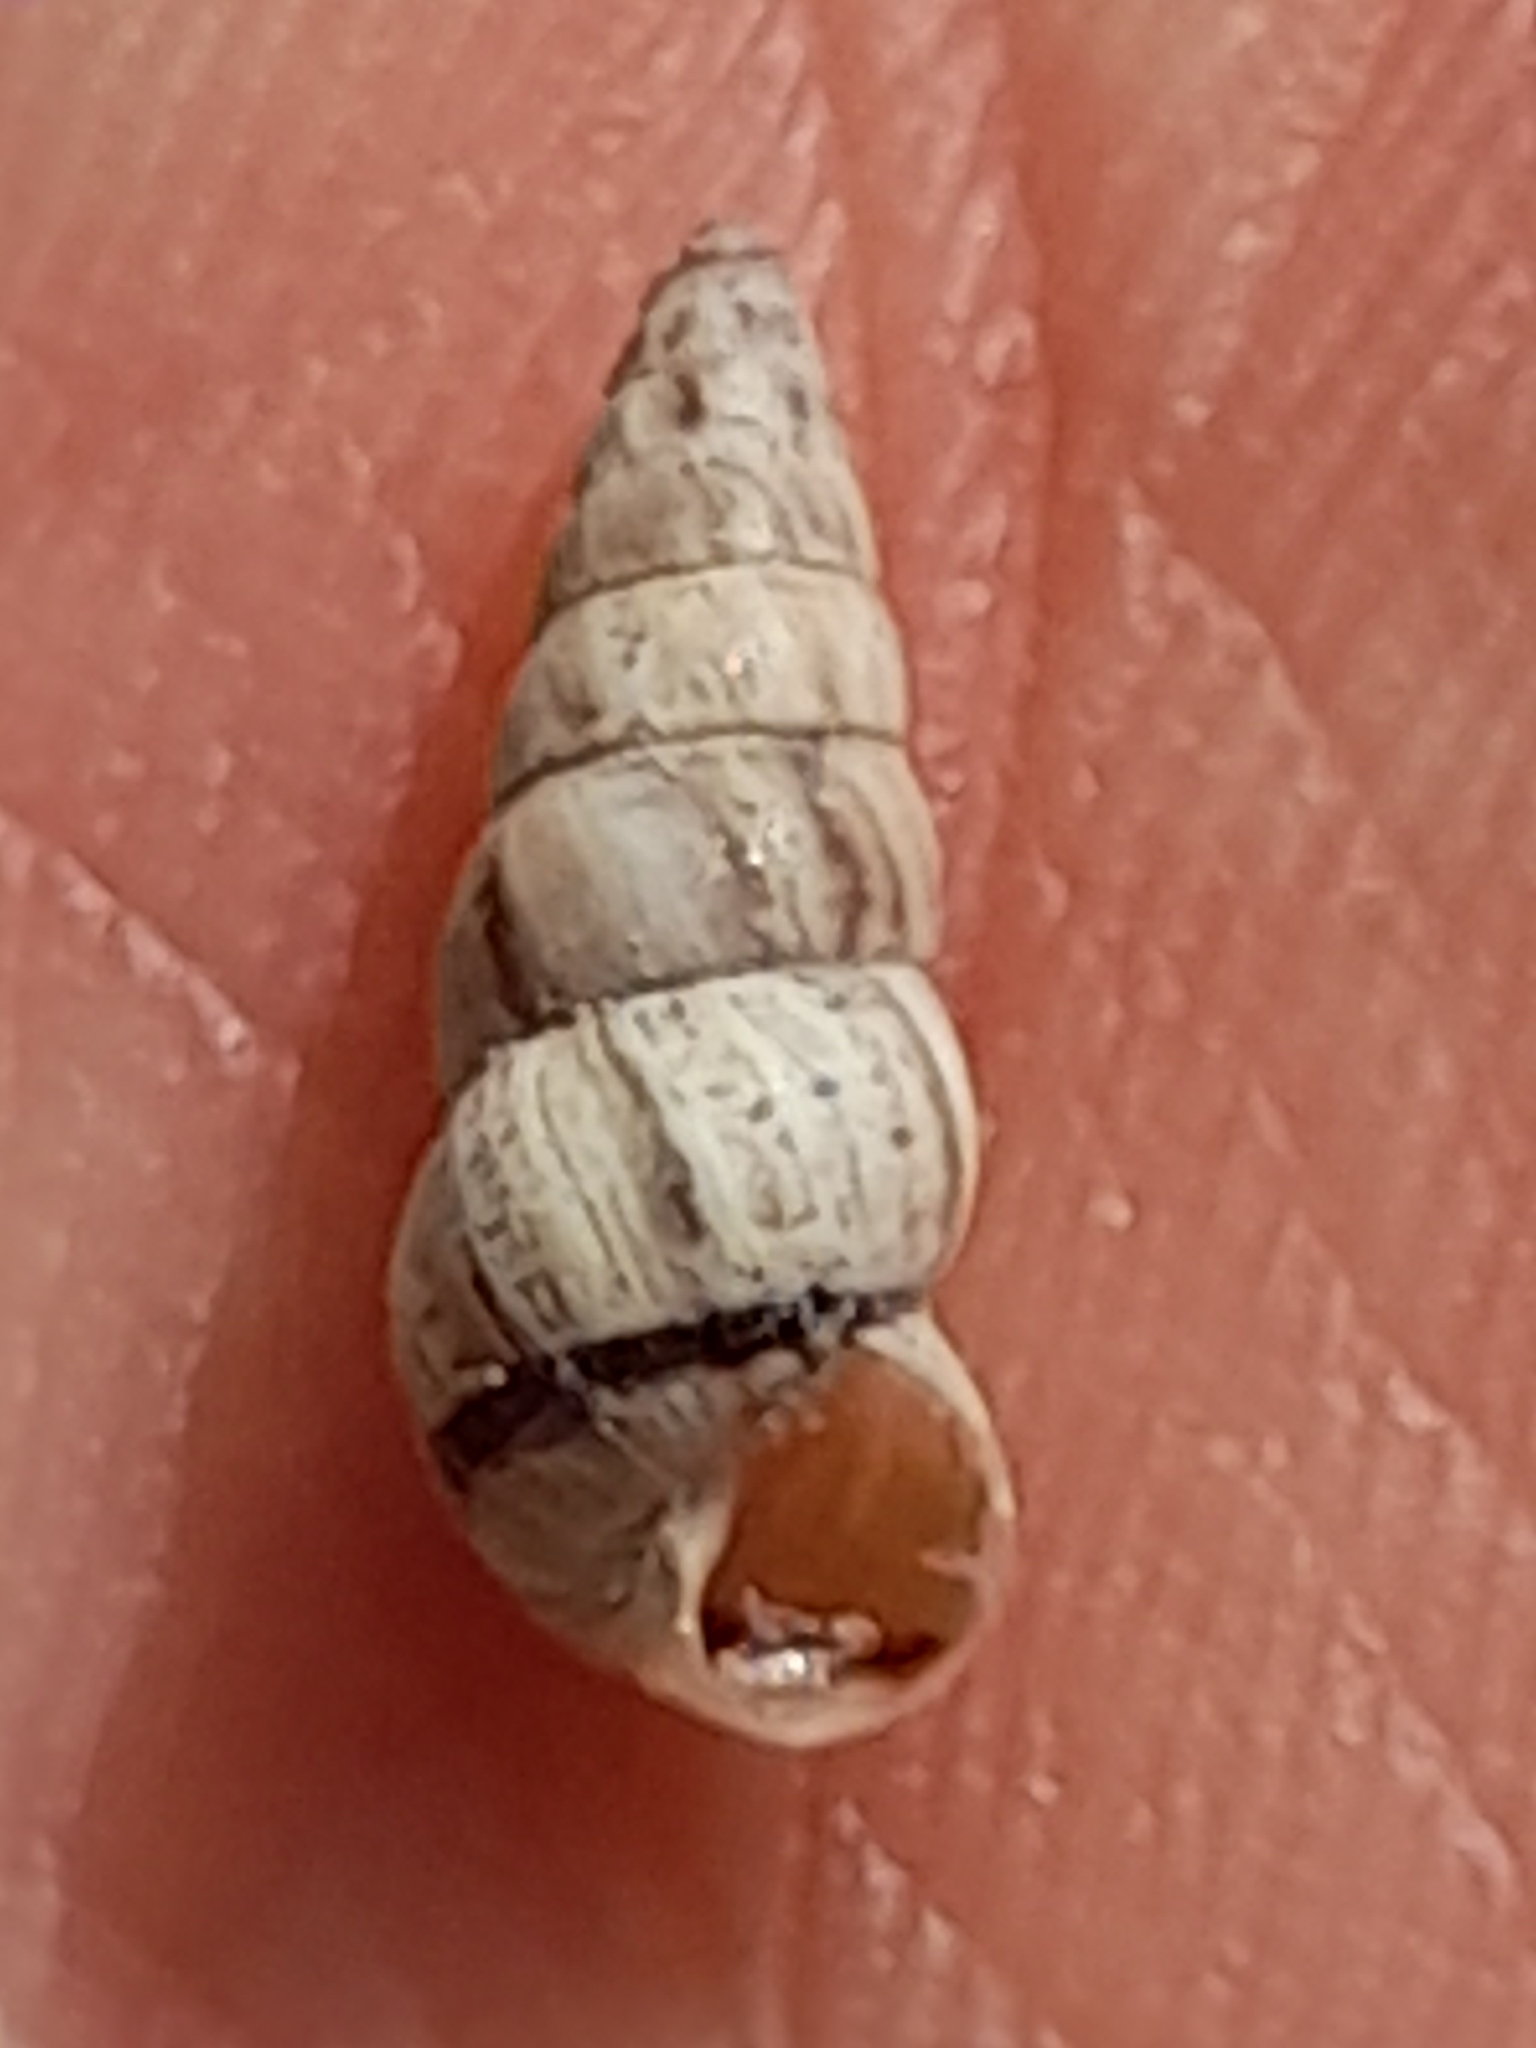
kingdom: Animalia
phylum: Mollusca
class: Gastropoda
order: Stylommatophora
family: Geomitridae
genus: Cochlicella
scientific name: Cochlicella acuta
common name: Pointed snail
